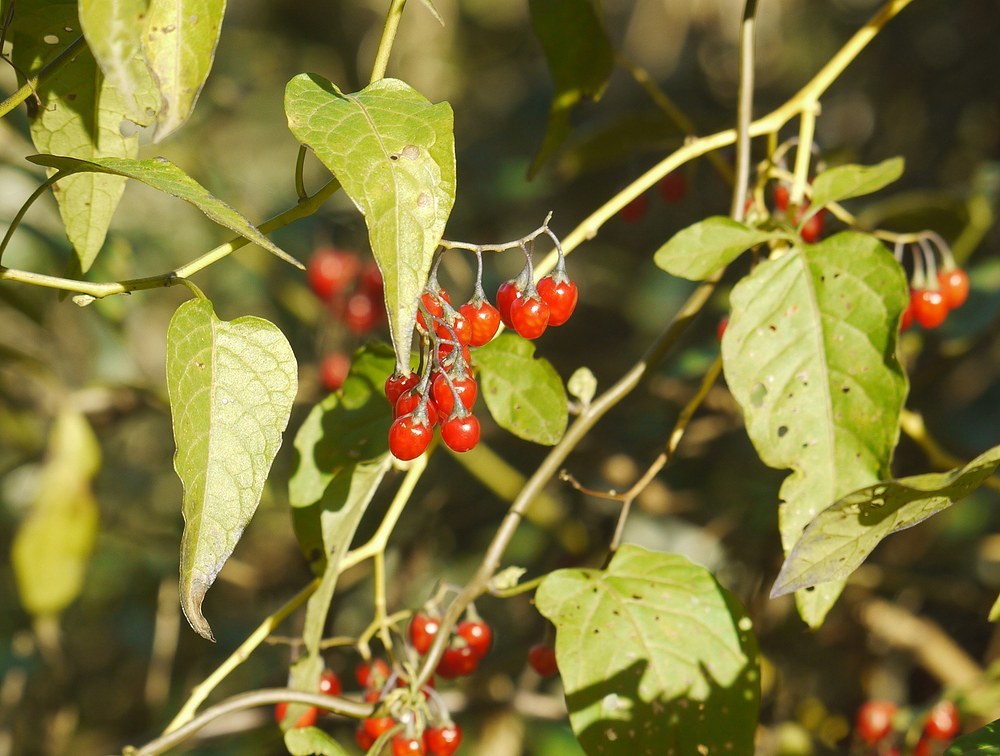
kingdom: Plantae
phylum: Tracheophyta
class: Magnoliopsida
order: Solanales
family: Solanaceae
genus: Solanum
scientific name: Solanum dulcamara
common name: Climbing nightshade
